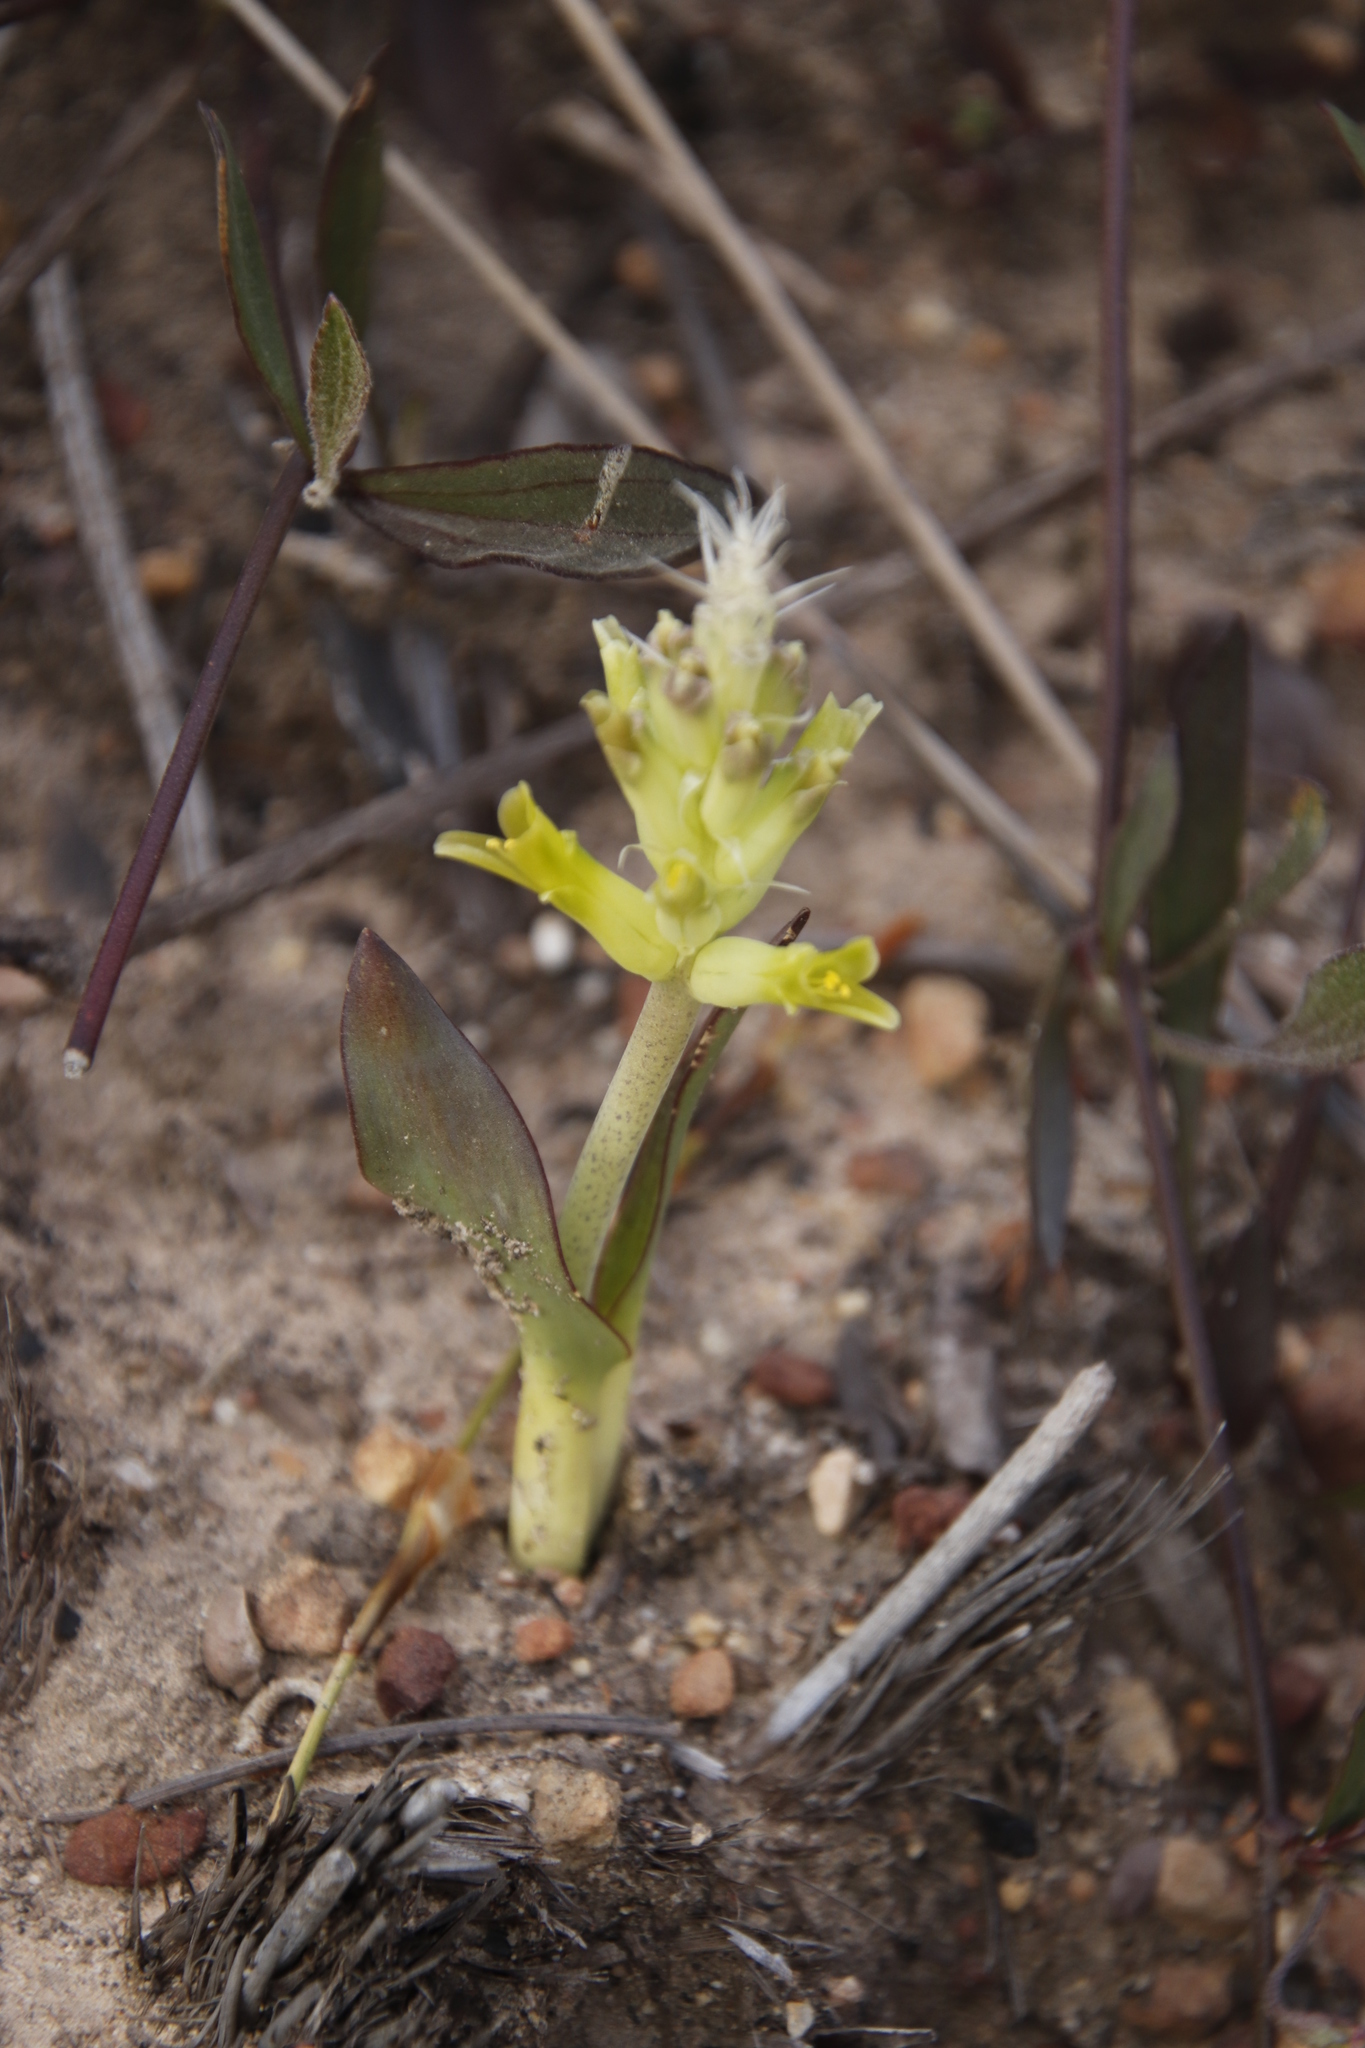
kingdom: Plantae
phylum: Tracheophyta
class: Liliopsida
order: Asparagales
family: Asparagaceae
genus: Lachenalia
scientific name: Lachenalia orchioides
